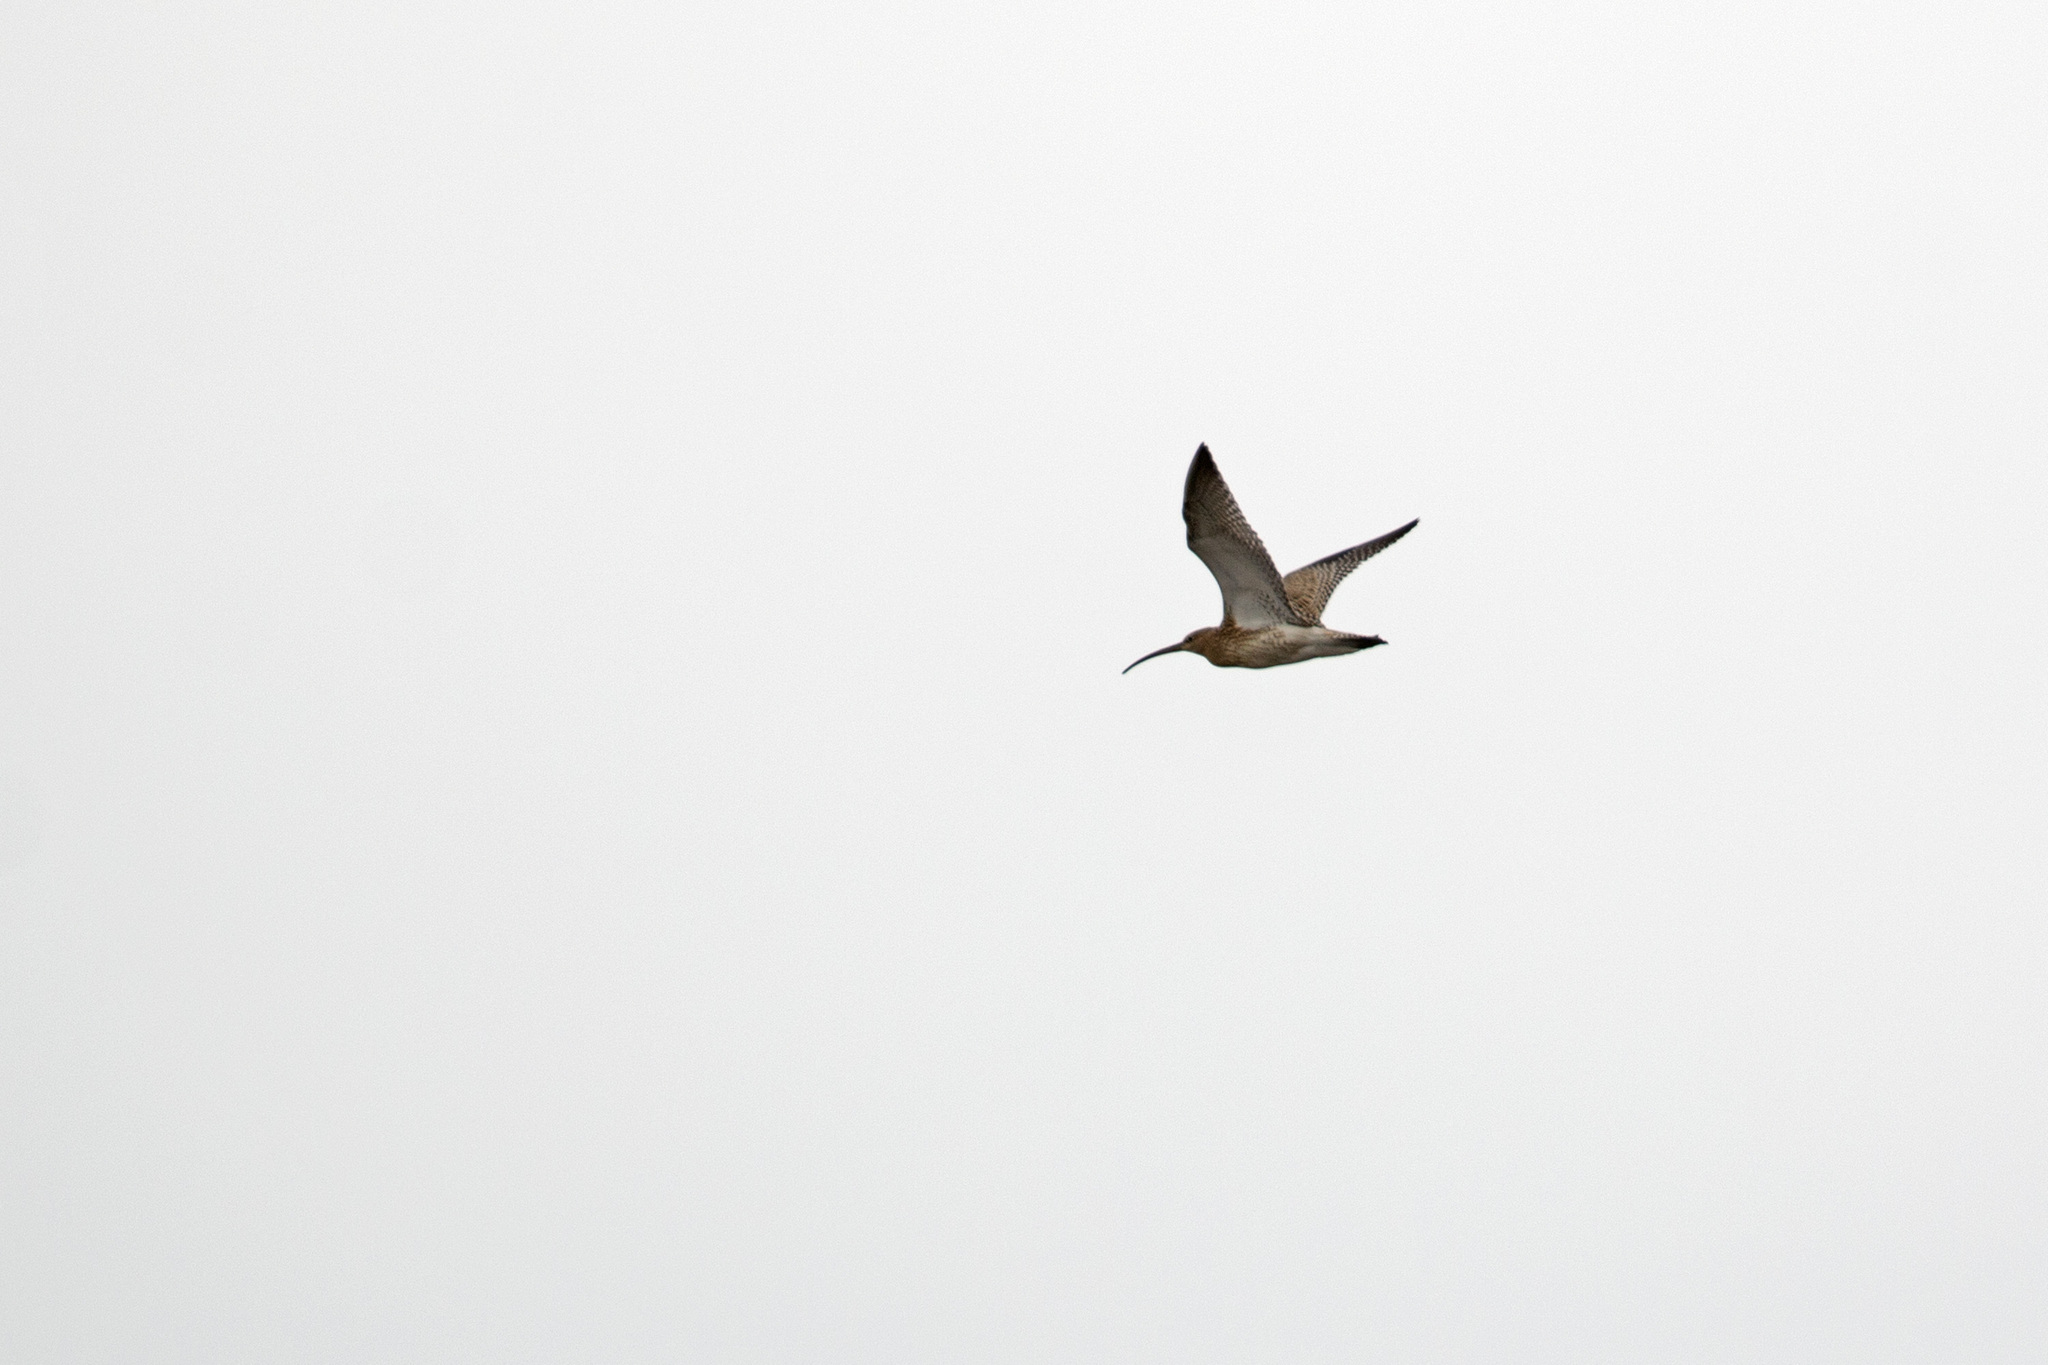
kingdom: Animalia
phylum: Chordata
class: Aves
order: Charadriiformes
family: Scolopacidae
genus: Numenius
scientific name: Numenius arquata
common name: Eurasian curlew
